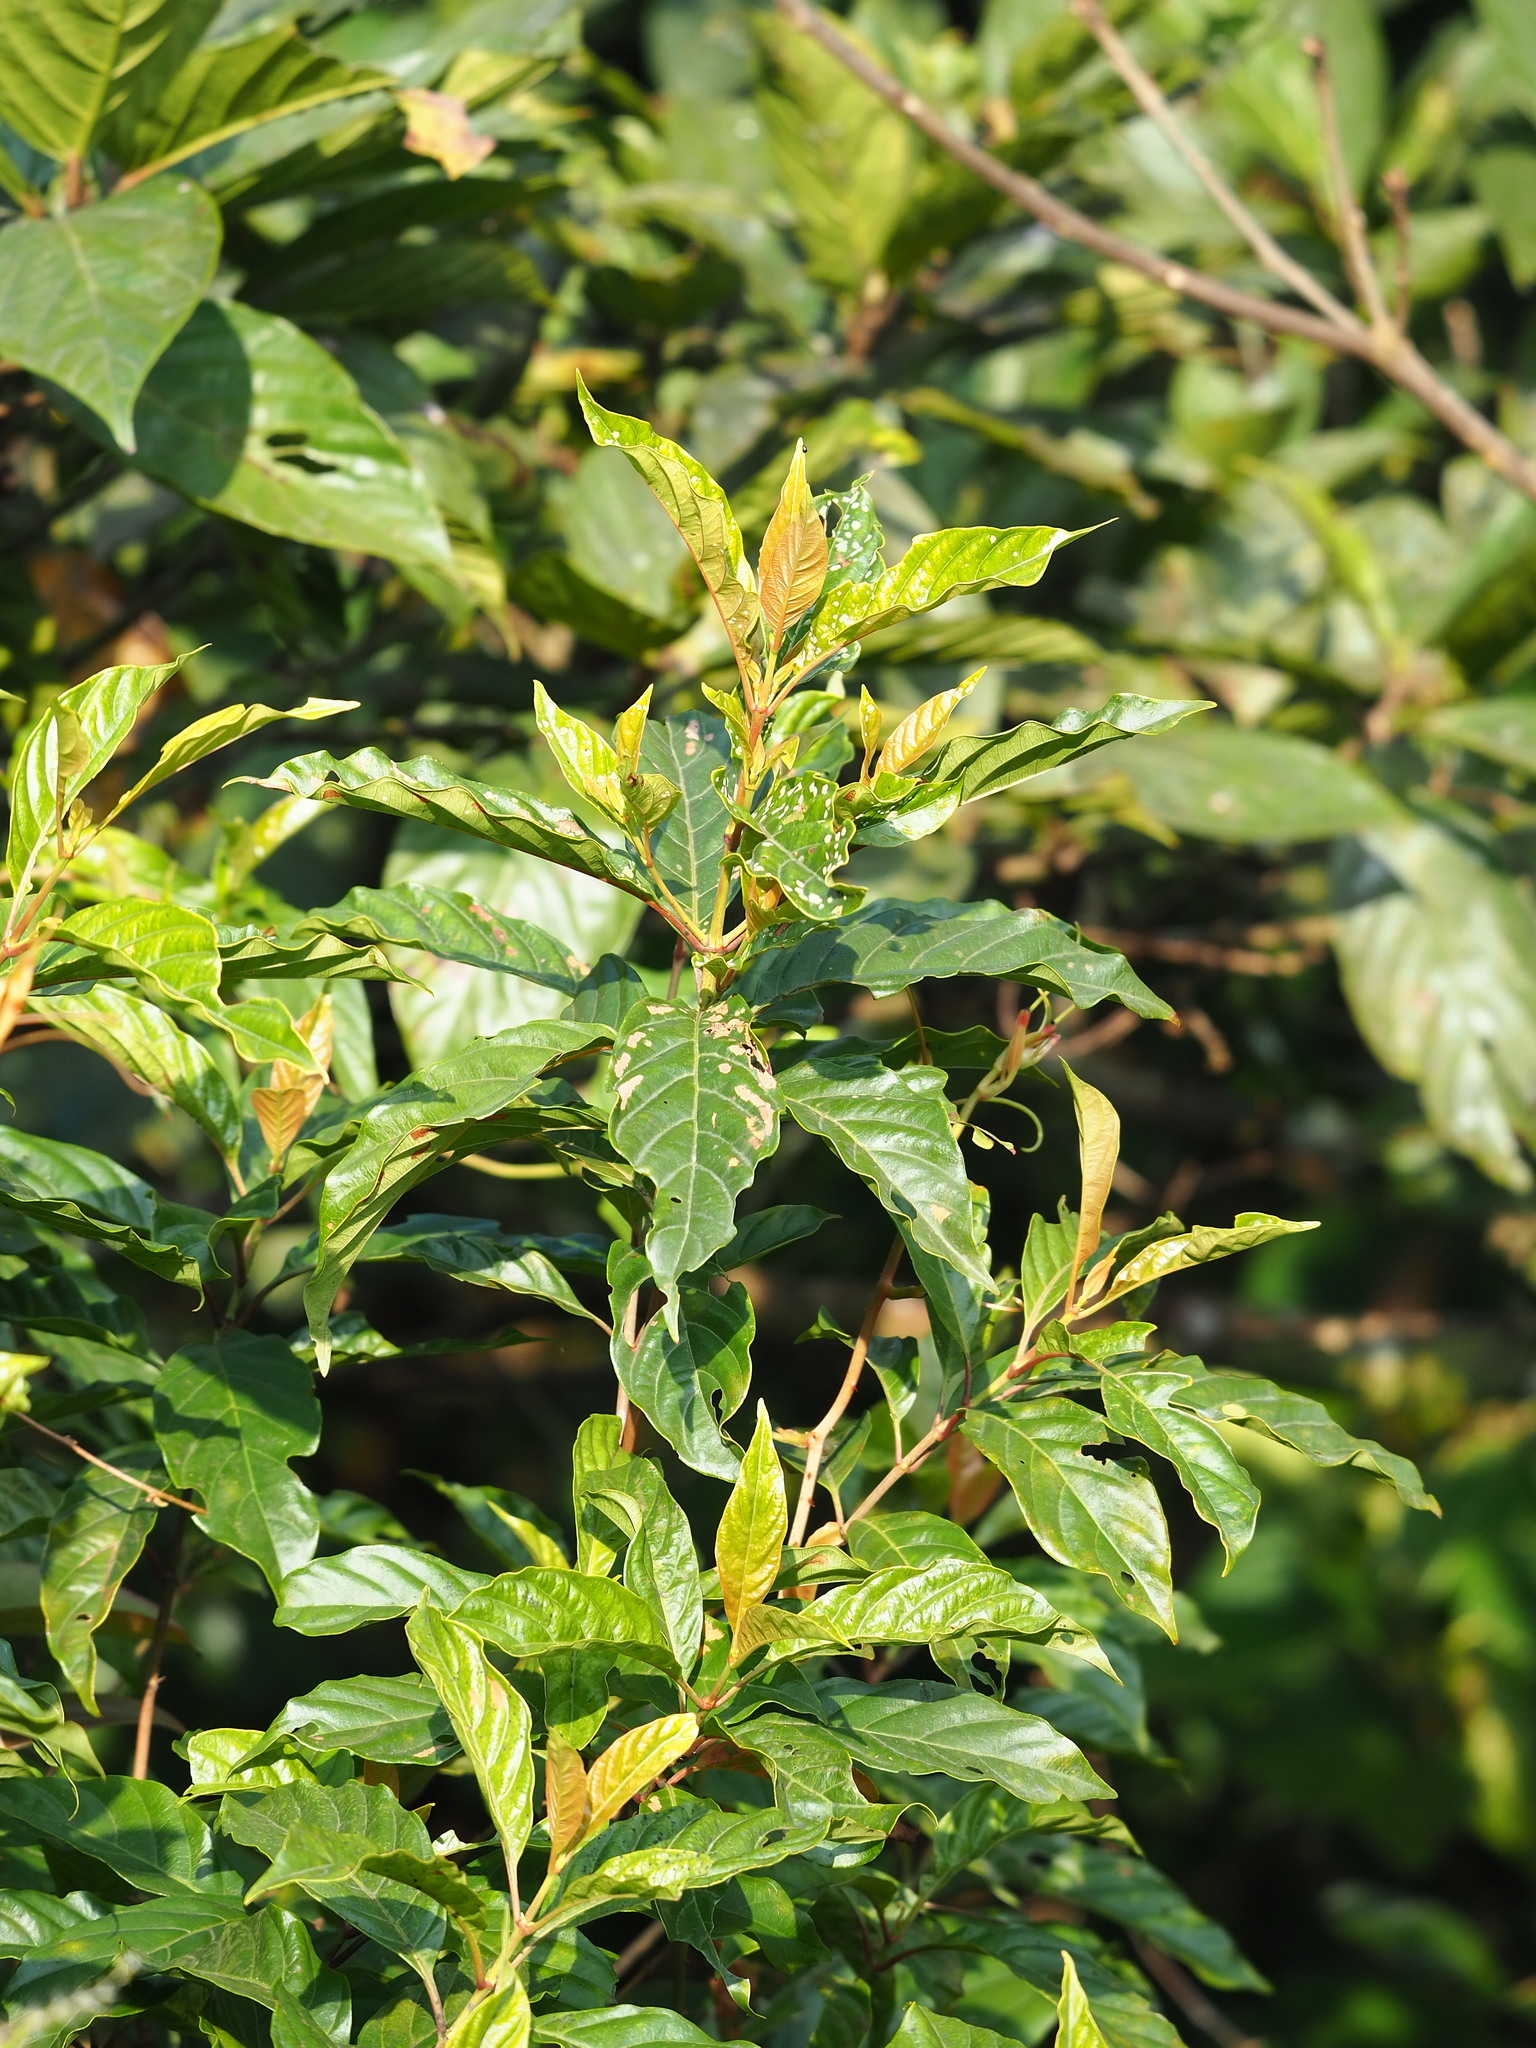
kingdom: Plantae
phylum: Tracheophyta
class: Magnoliopsida
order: Gentianales
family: Rubiaceae
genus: Wendlandia
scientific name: Wendlandia formosana
